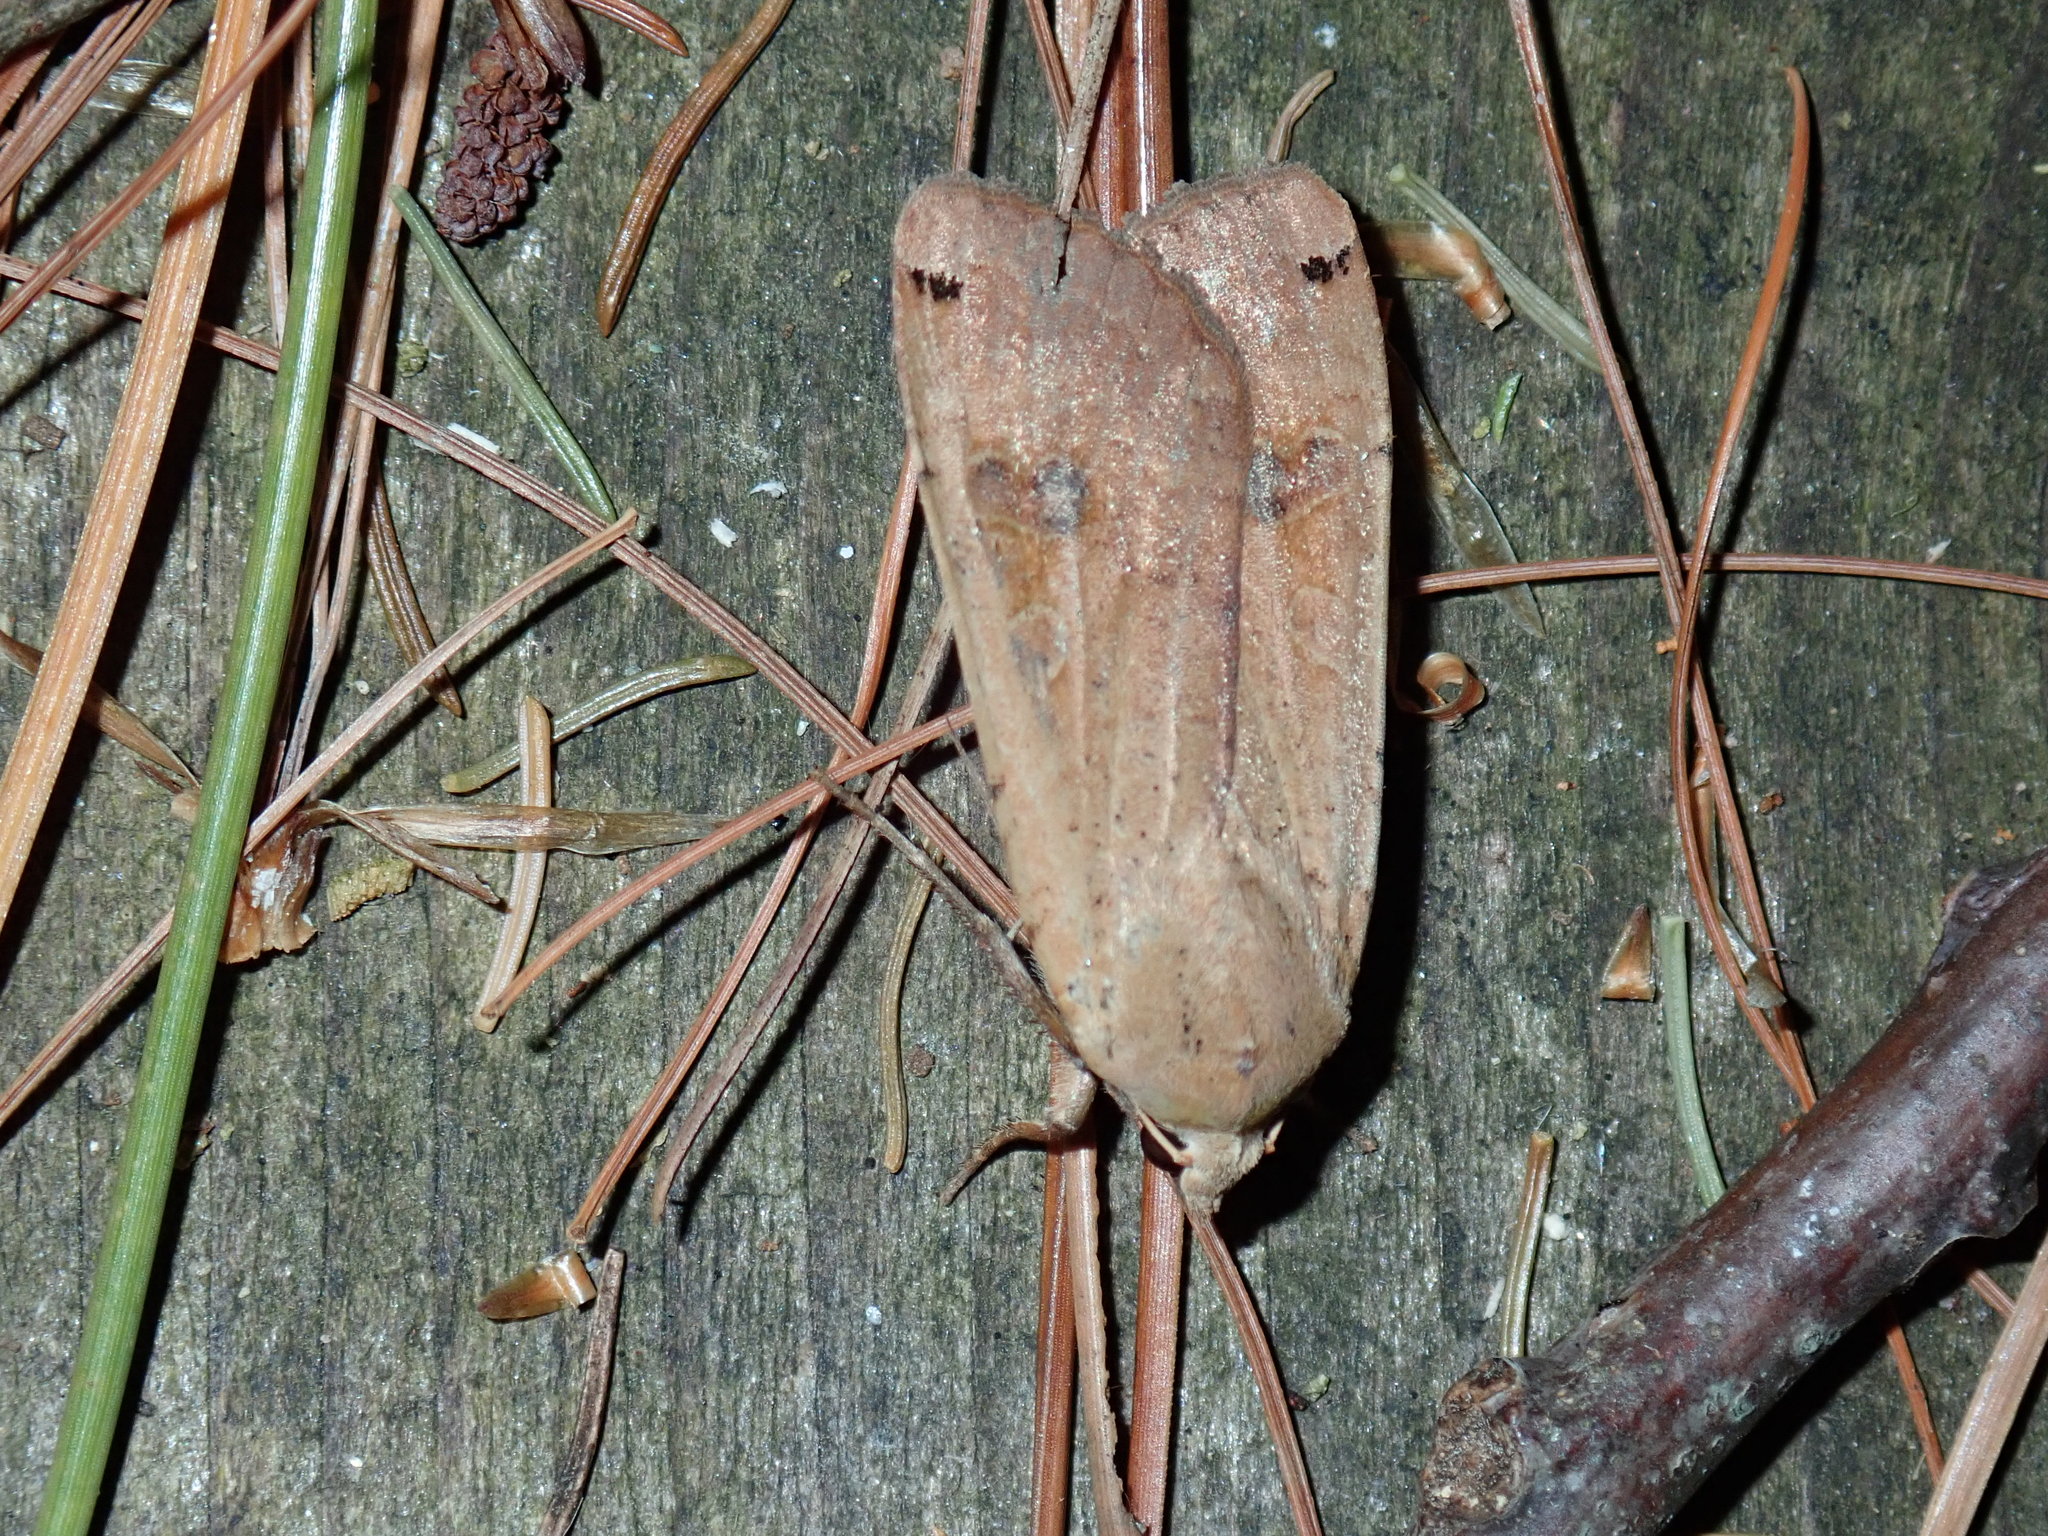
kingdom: Animalia
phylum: Arthropoda
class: Insecta
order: Lepidoptera
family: Noctuidae
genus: Noctua
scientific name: Noctua pronuba
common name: Large yellow underwing
